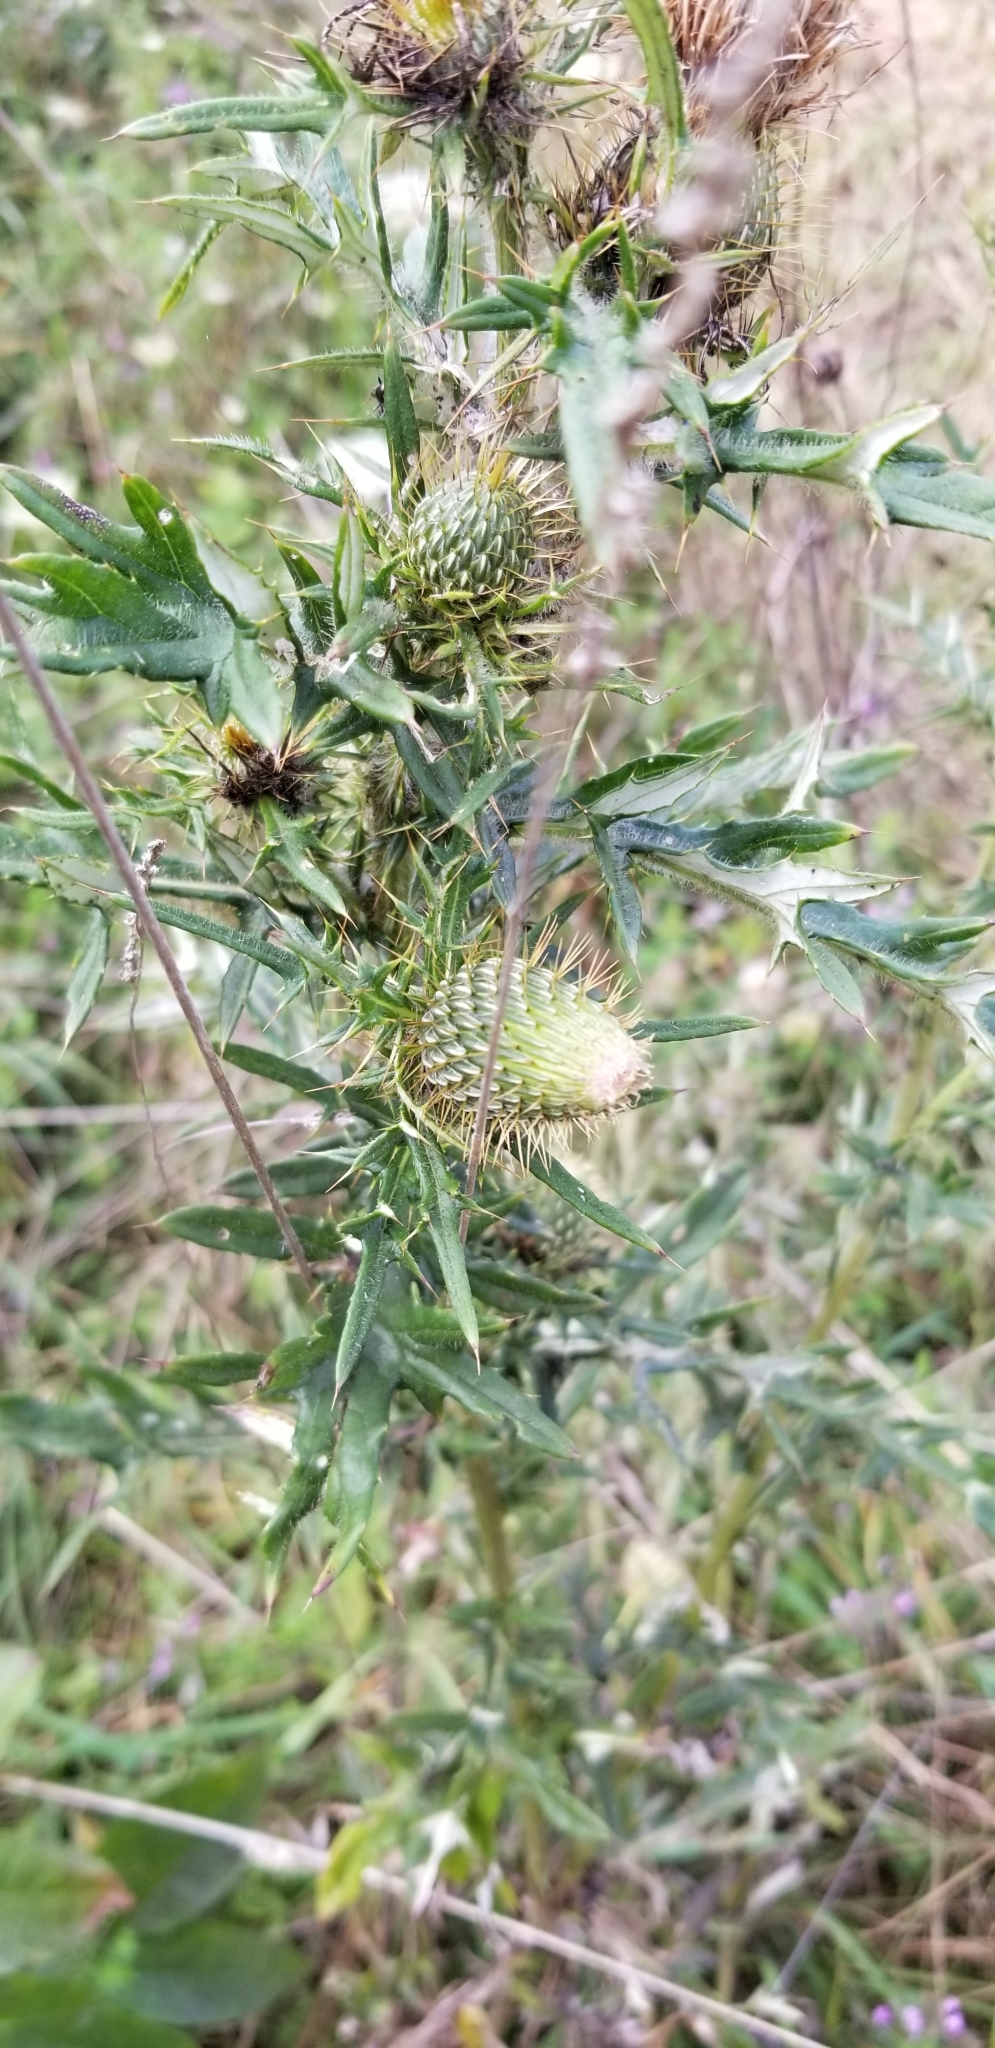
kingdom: Plantae
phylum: Tracheophyta
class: Magnoliopsida
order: Asterales
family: Asteraceae
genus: Cirsium
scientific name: Cirsium discolor
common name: Field thistle
